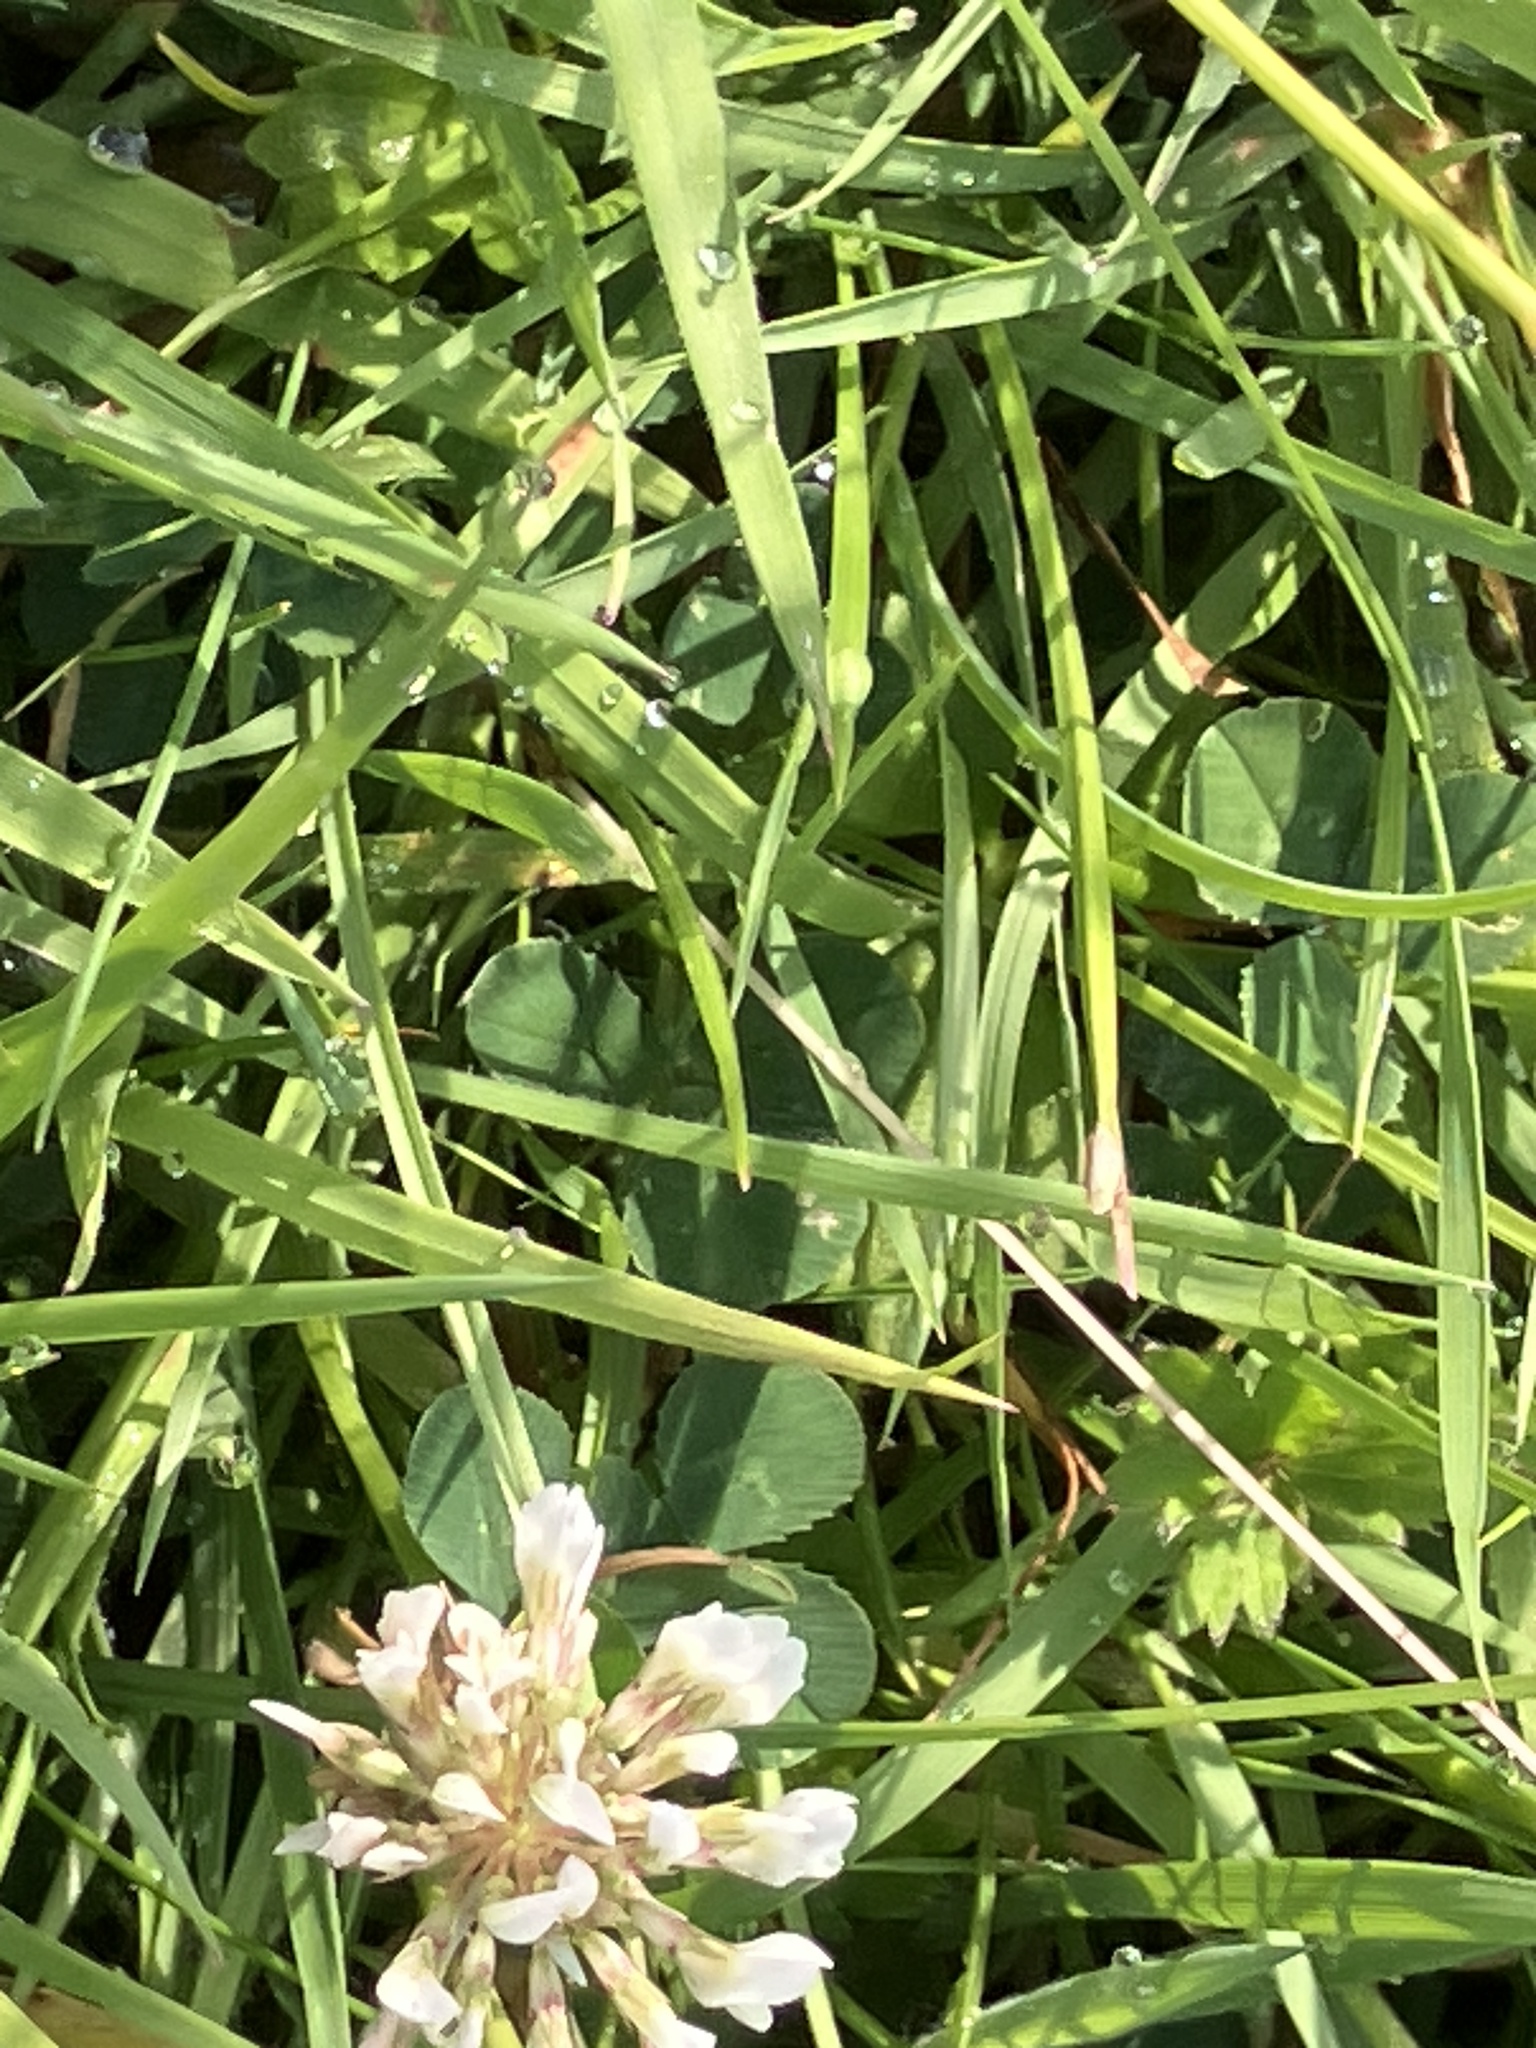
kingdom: Plantae
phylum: Tracheophyta
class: Magnoliopsida
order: Fabales
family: Fabaceae
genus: Trifolium
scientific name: Trifolium repens
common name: White clover
